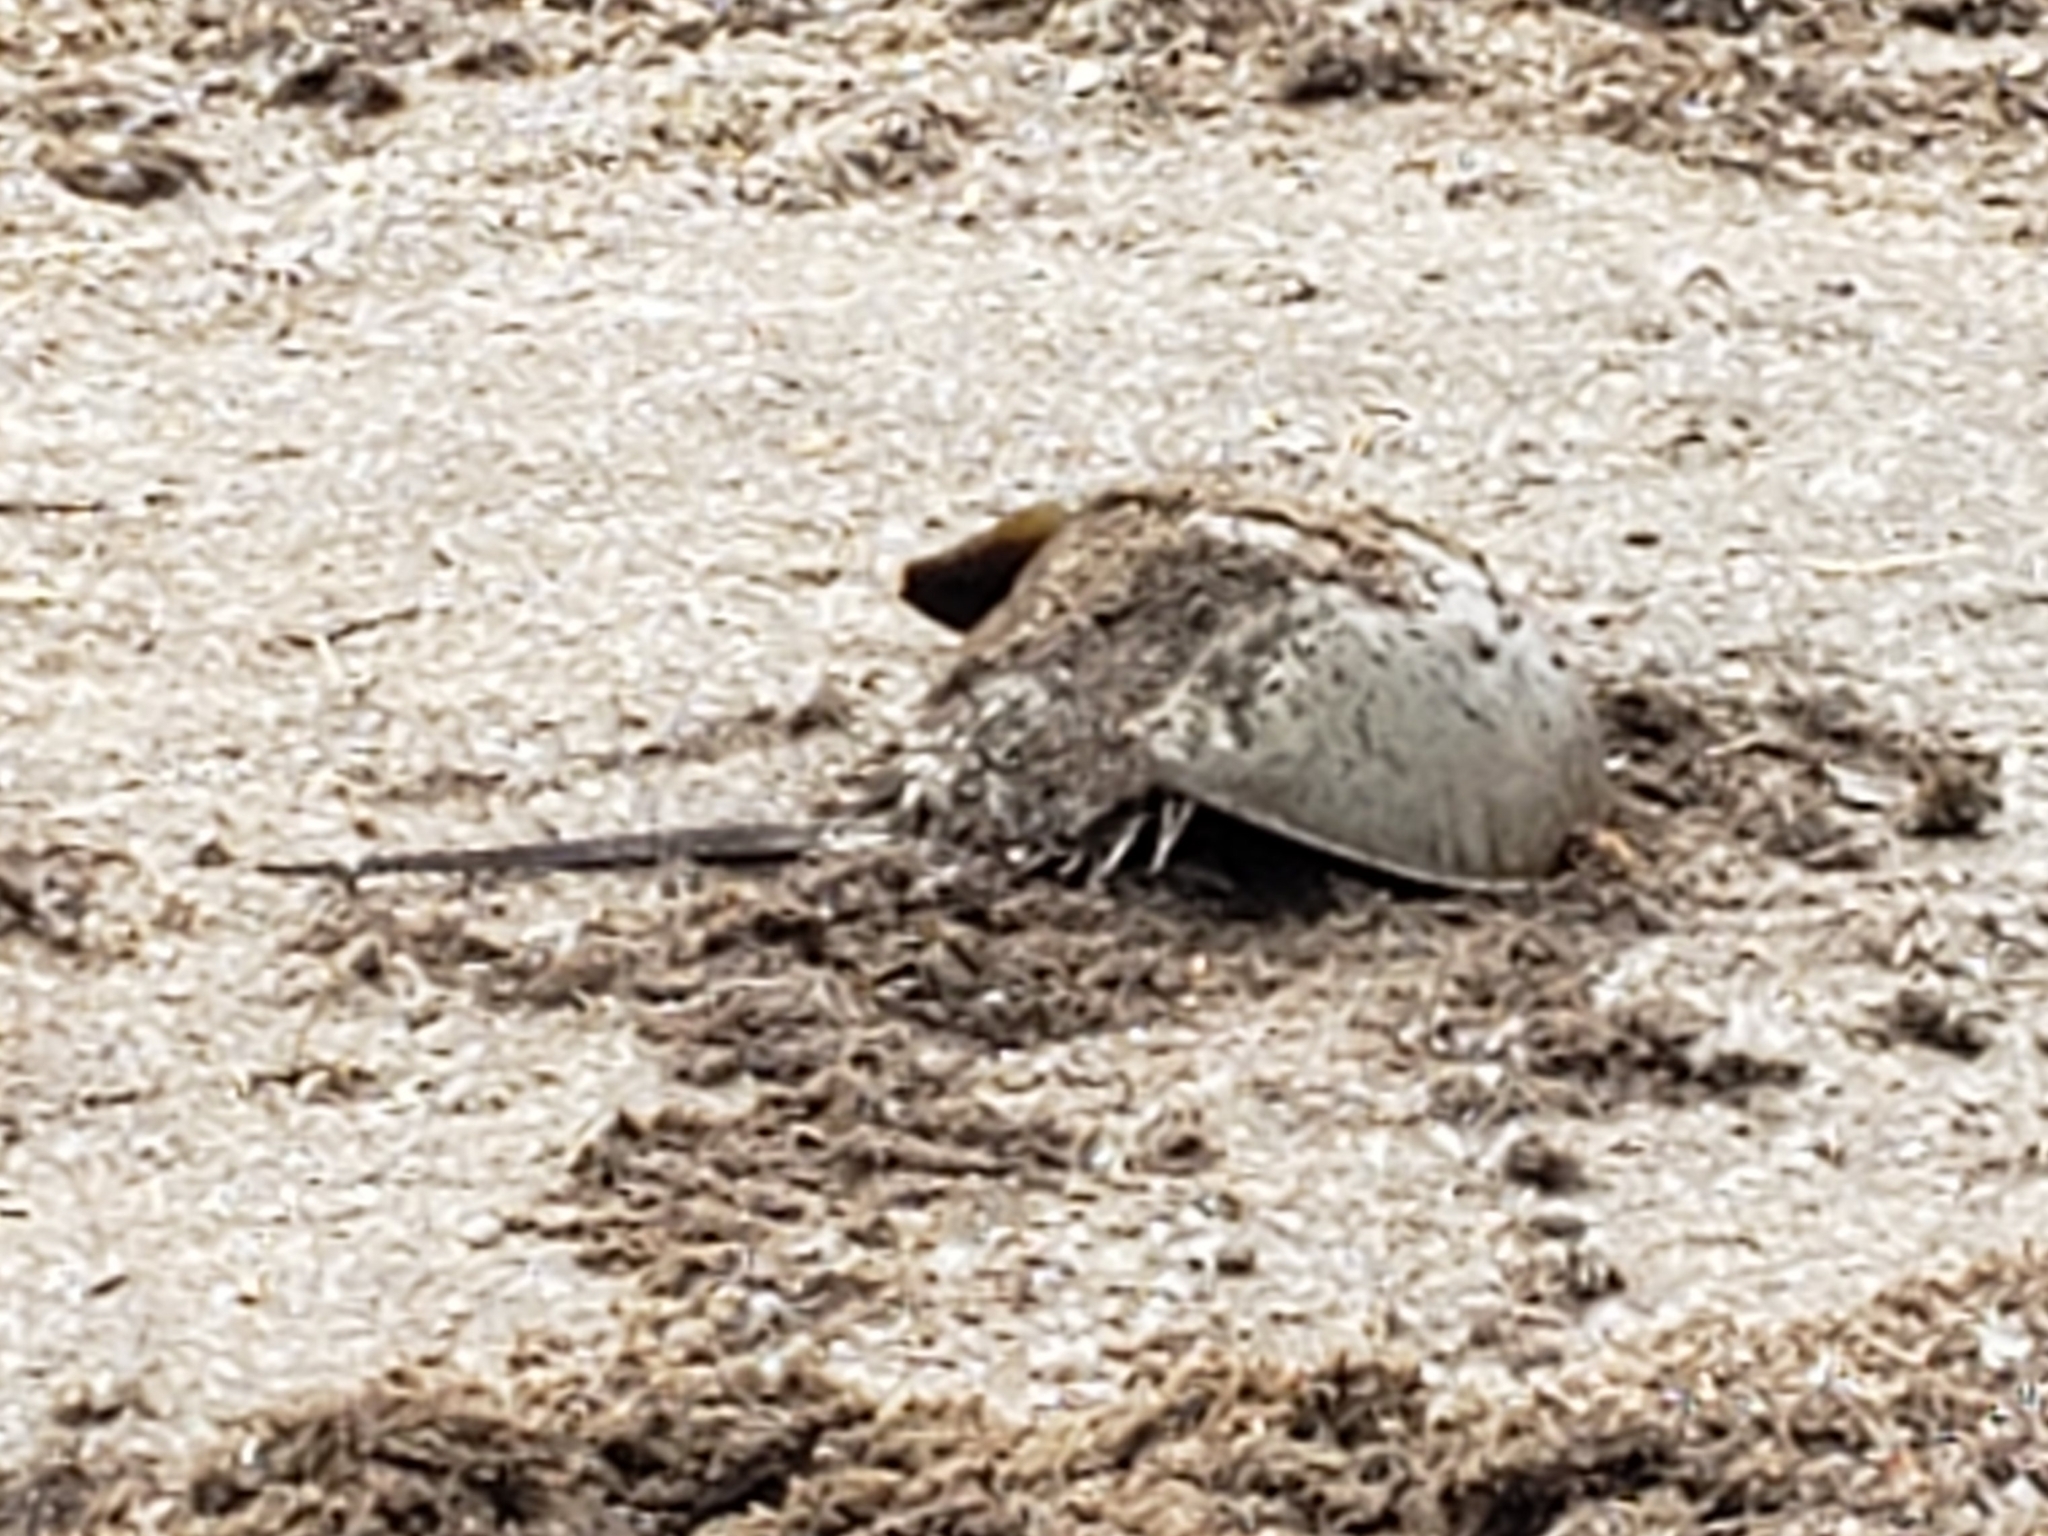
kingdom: Animalia
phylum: Arthropoda
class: Merostomata
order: Xiphosurida
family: Limulidae
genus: Limulus
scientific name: Limulus polyphemus
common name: Horseshoe crab
